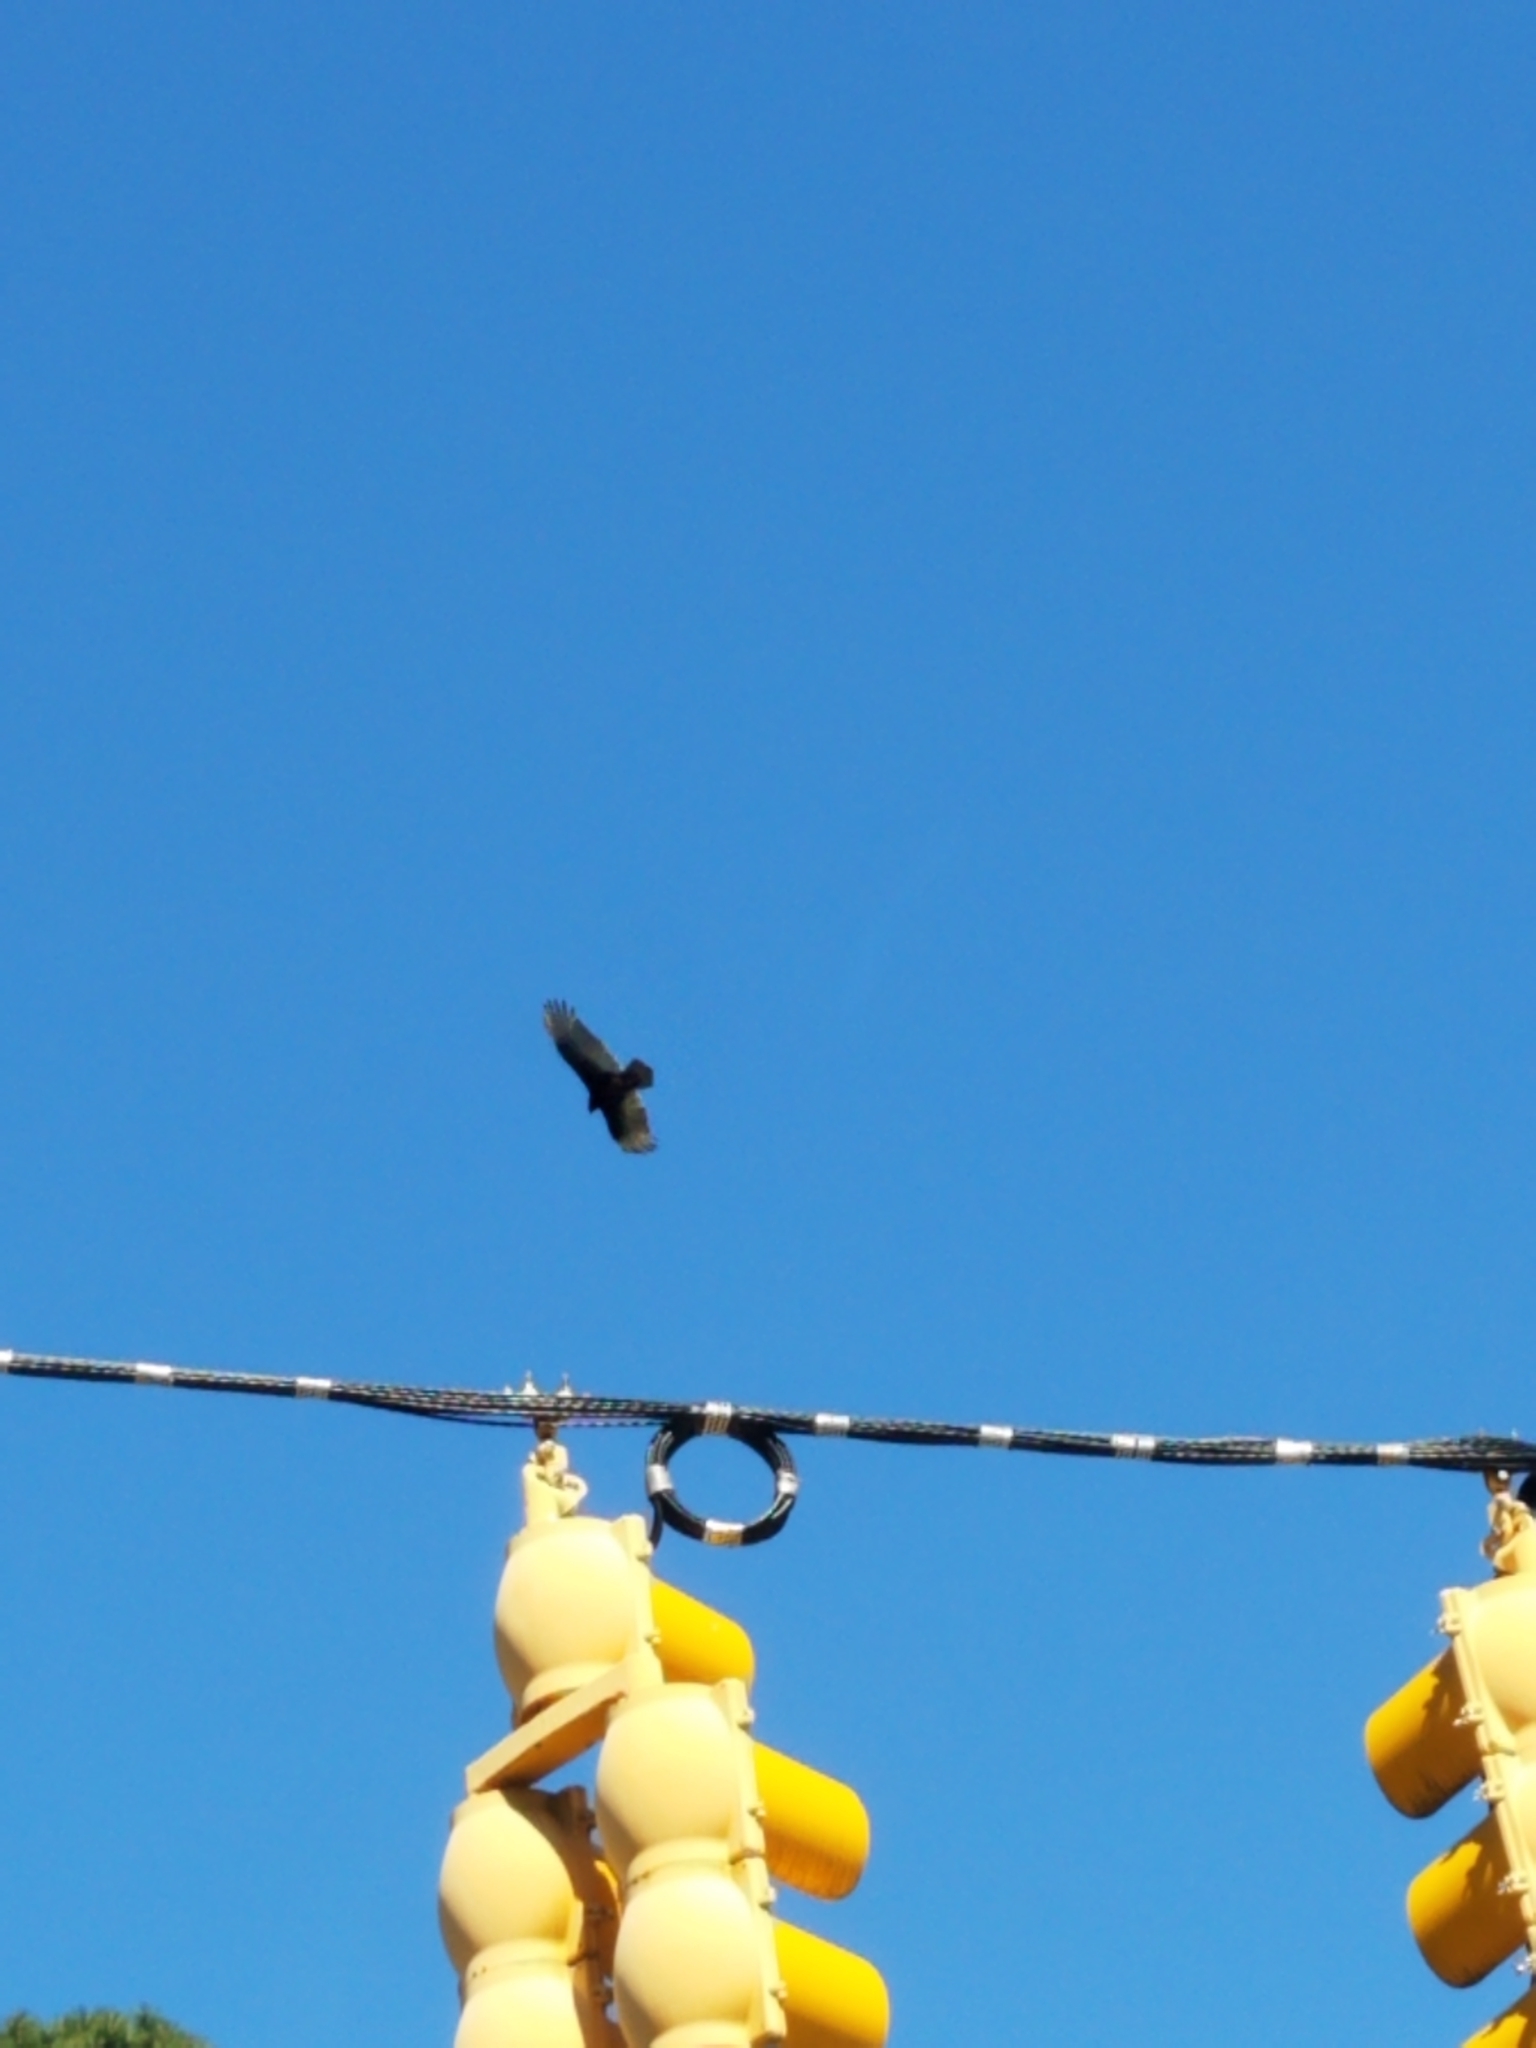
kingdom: Animalia
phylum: Chordata
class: Aves
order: Accipitriformes
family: Cathartidae
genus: Cathartes
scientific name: Cathartes aura
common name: Turkey vulture
